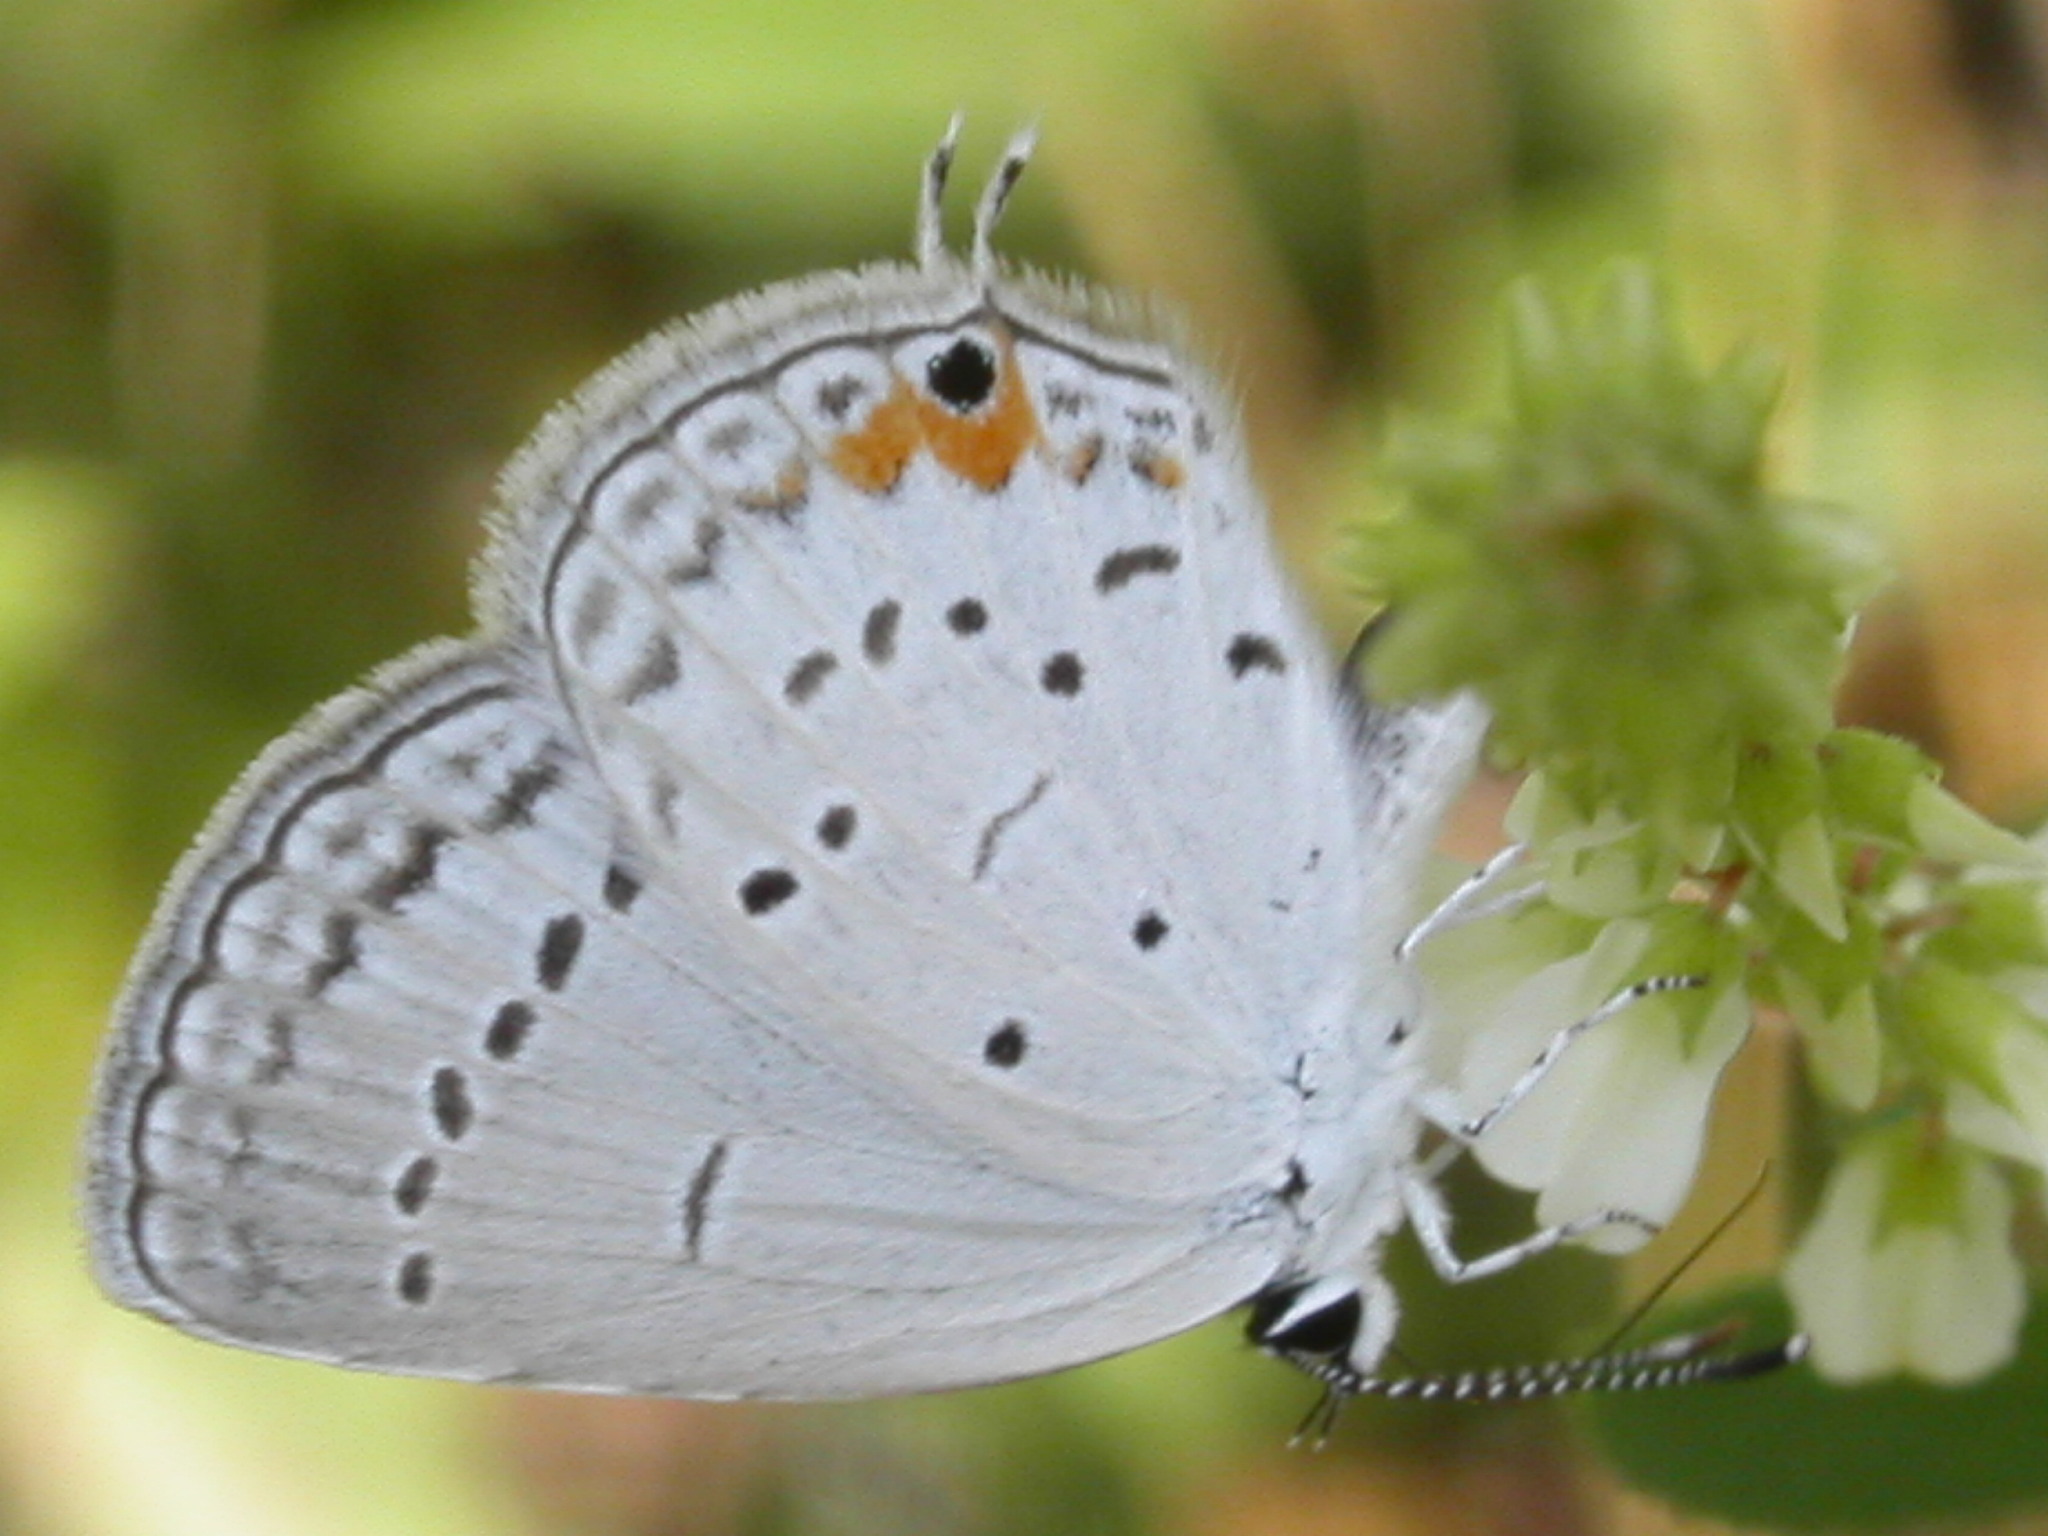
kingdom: Animalia
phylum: Arthropoda
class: Insecta
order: Lepidoptera
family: Lycaenidae
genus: Elkalyce
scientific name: Elkalyce comyntas
